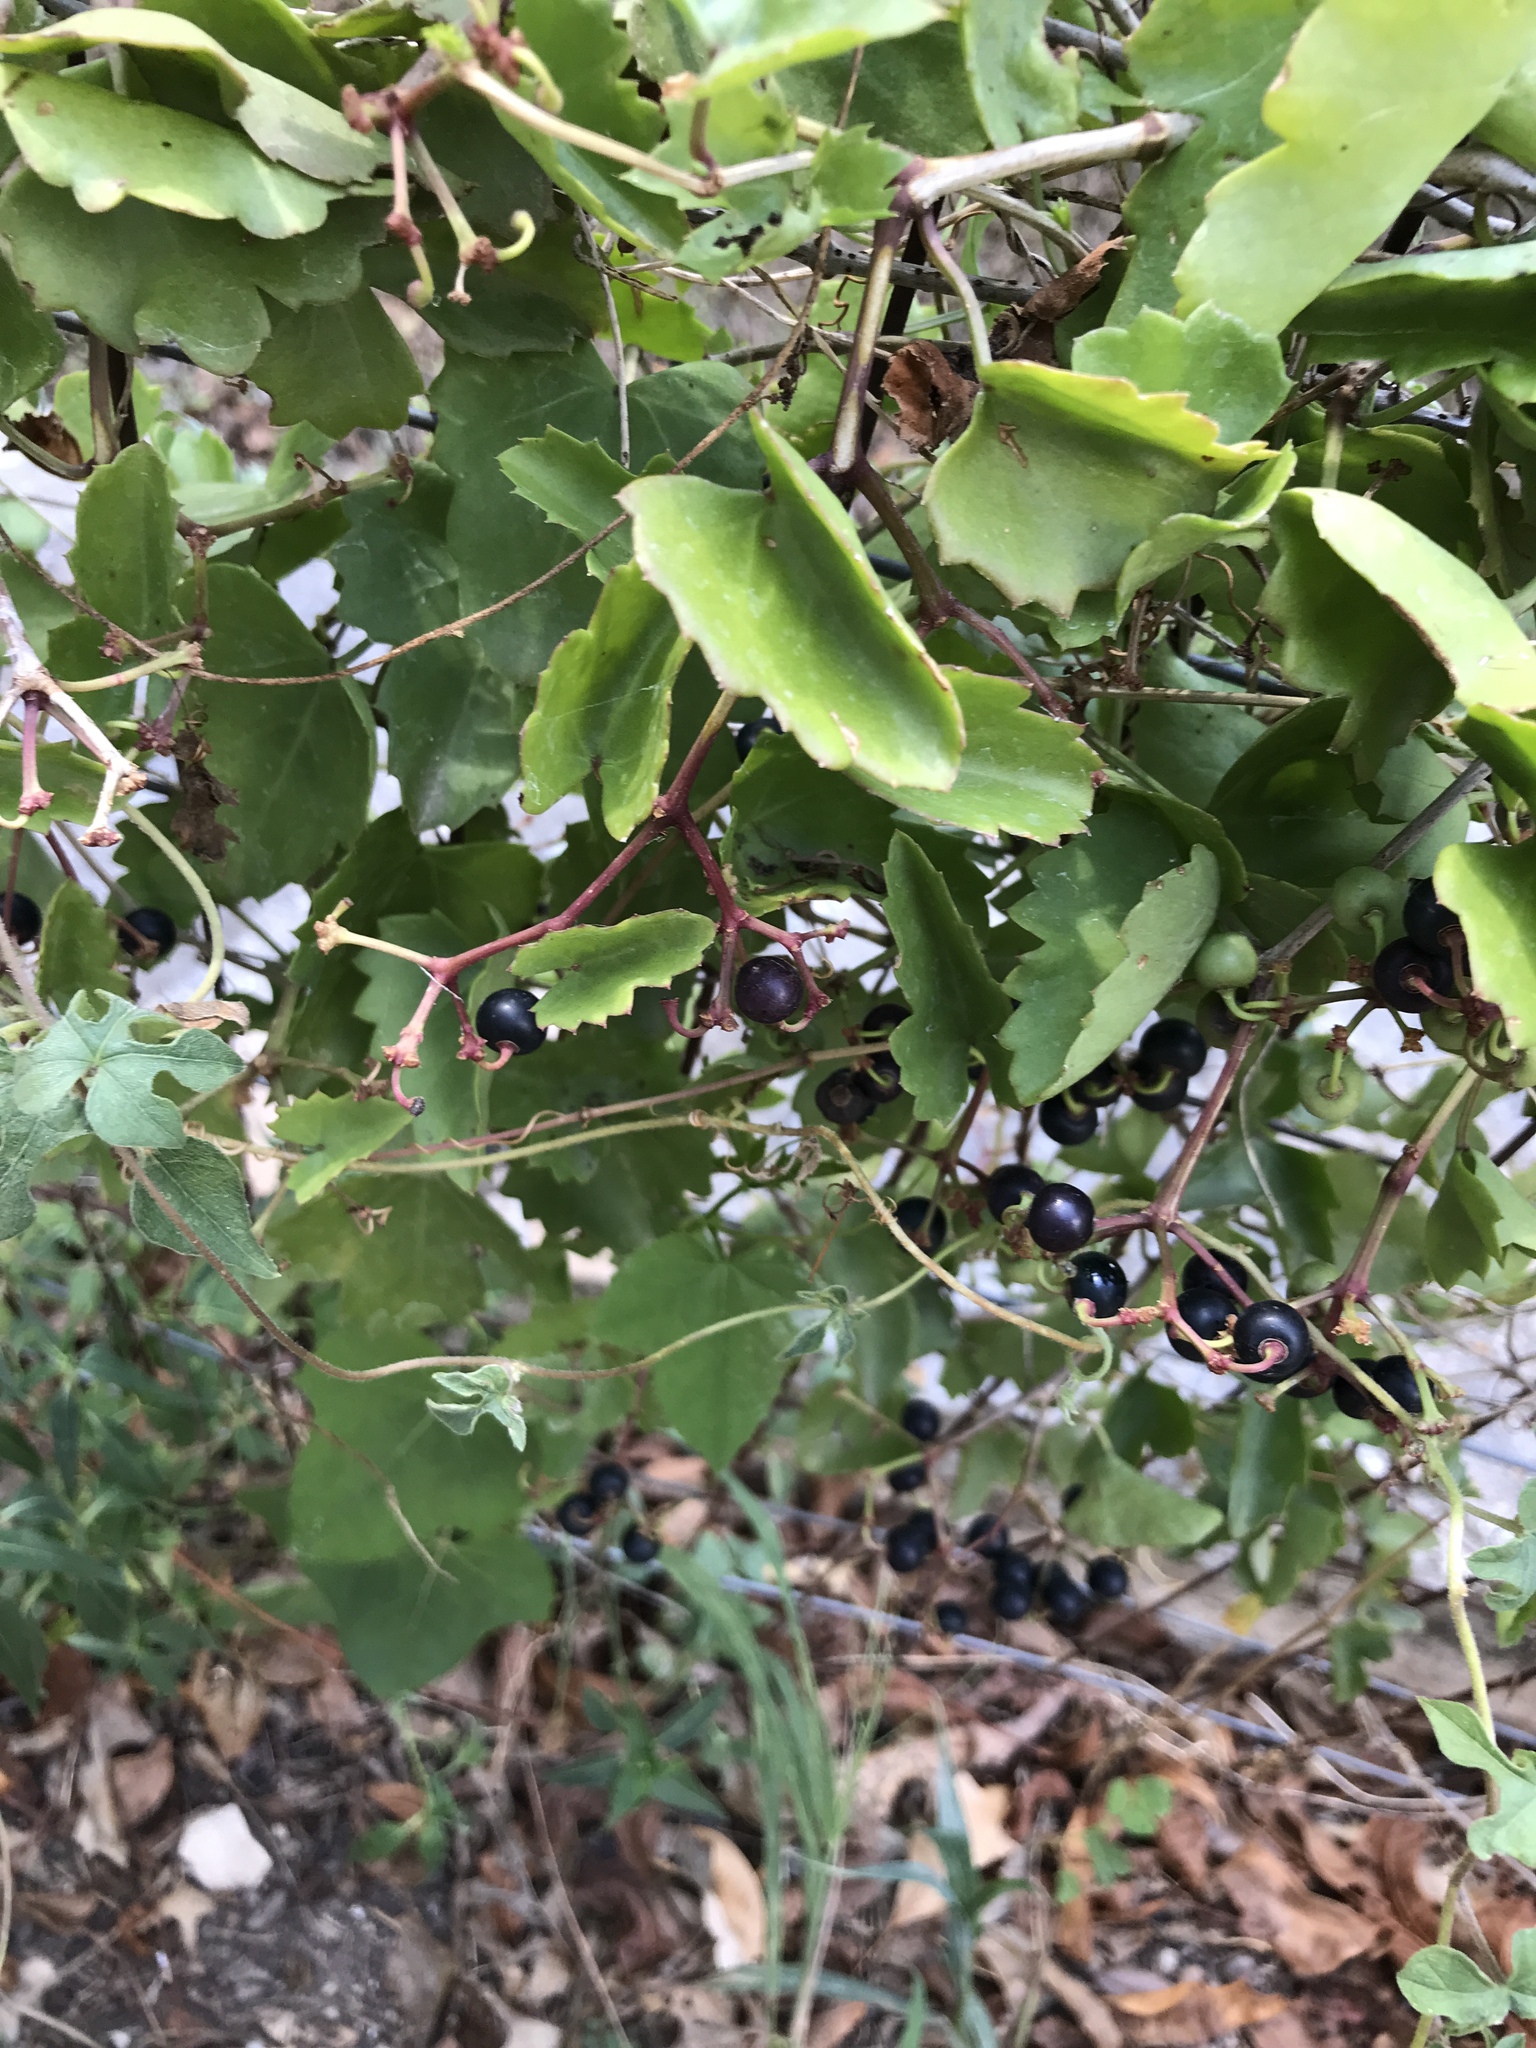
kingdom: Plantae
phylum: Tracheophyta
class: Magnoliopsida
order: Vitales
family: Vitaceae
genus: Cissus
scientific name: Cissus trifoliata
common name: Vine-sorrel
